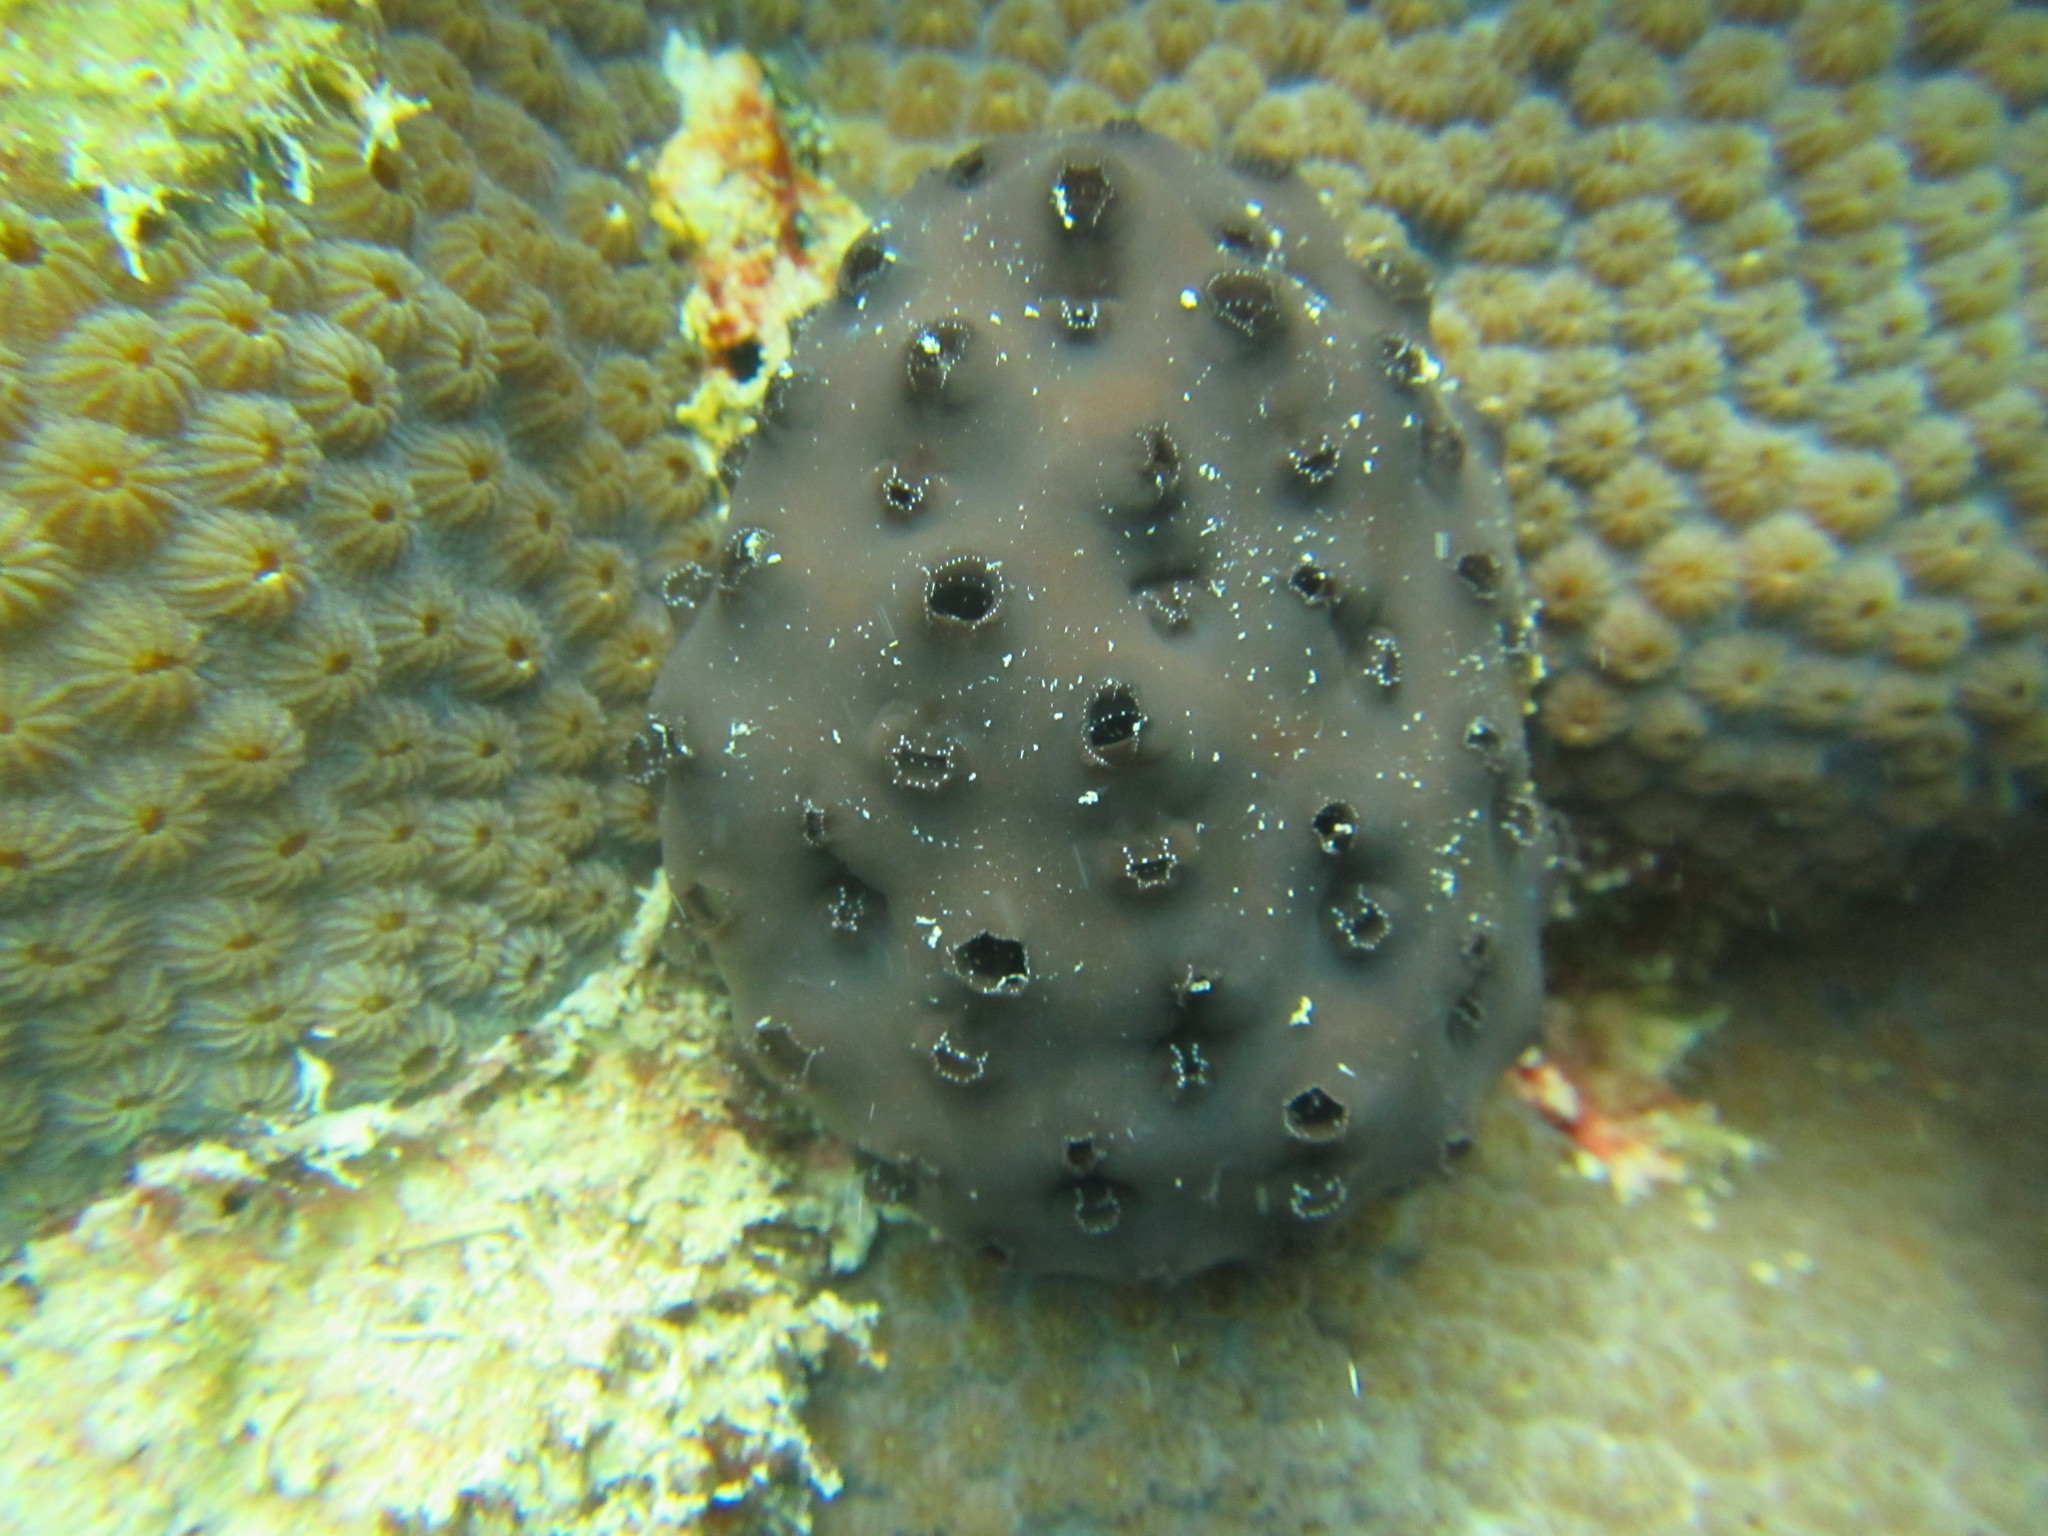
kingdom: Animalia
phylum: Chordata
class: Ascidiacea
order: Aplousobranchia
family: Polycitoridae
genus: Eudistoma
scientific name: Eudistoma obscuratum
